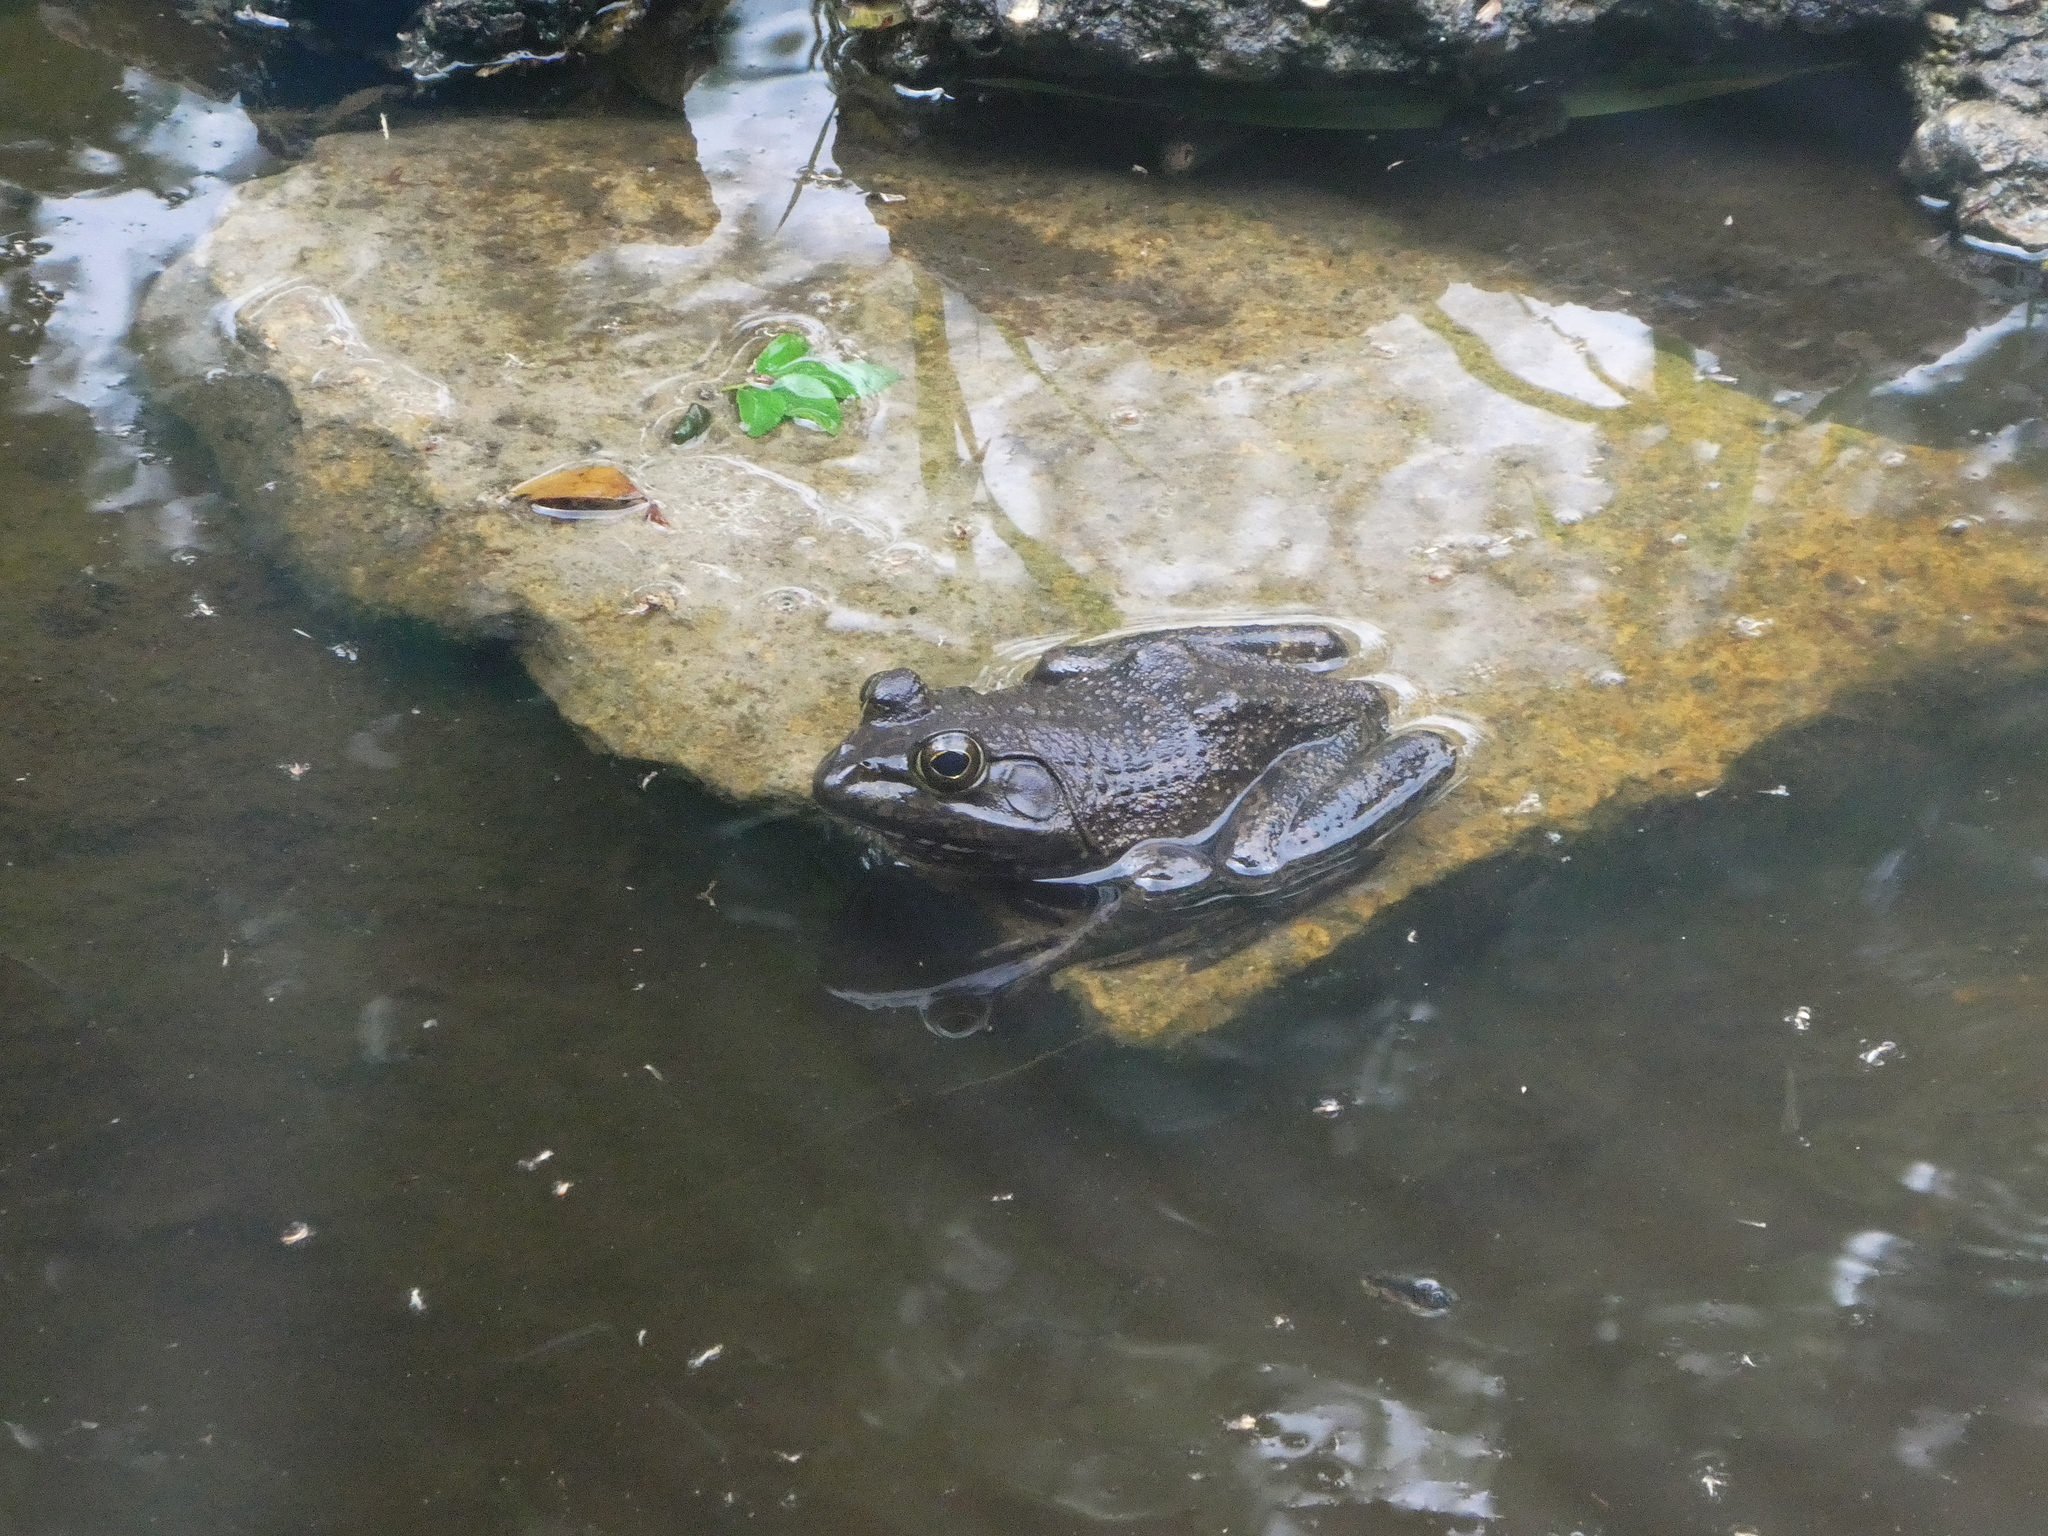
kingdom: Animalia
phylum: Chordata
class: Amphibia
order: Anura
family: Ranidae
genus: Lithobates
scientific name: Lithobates catesbeianus
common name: American bullfrog
